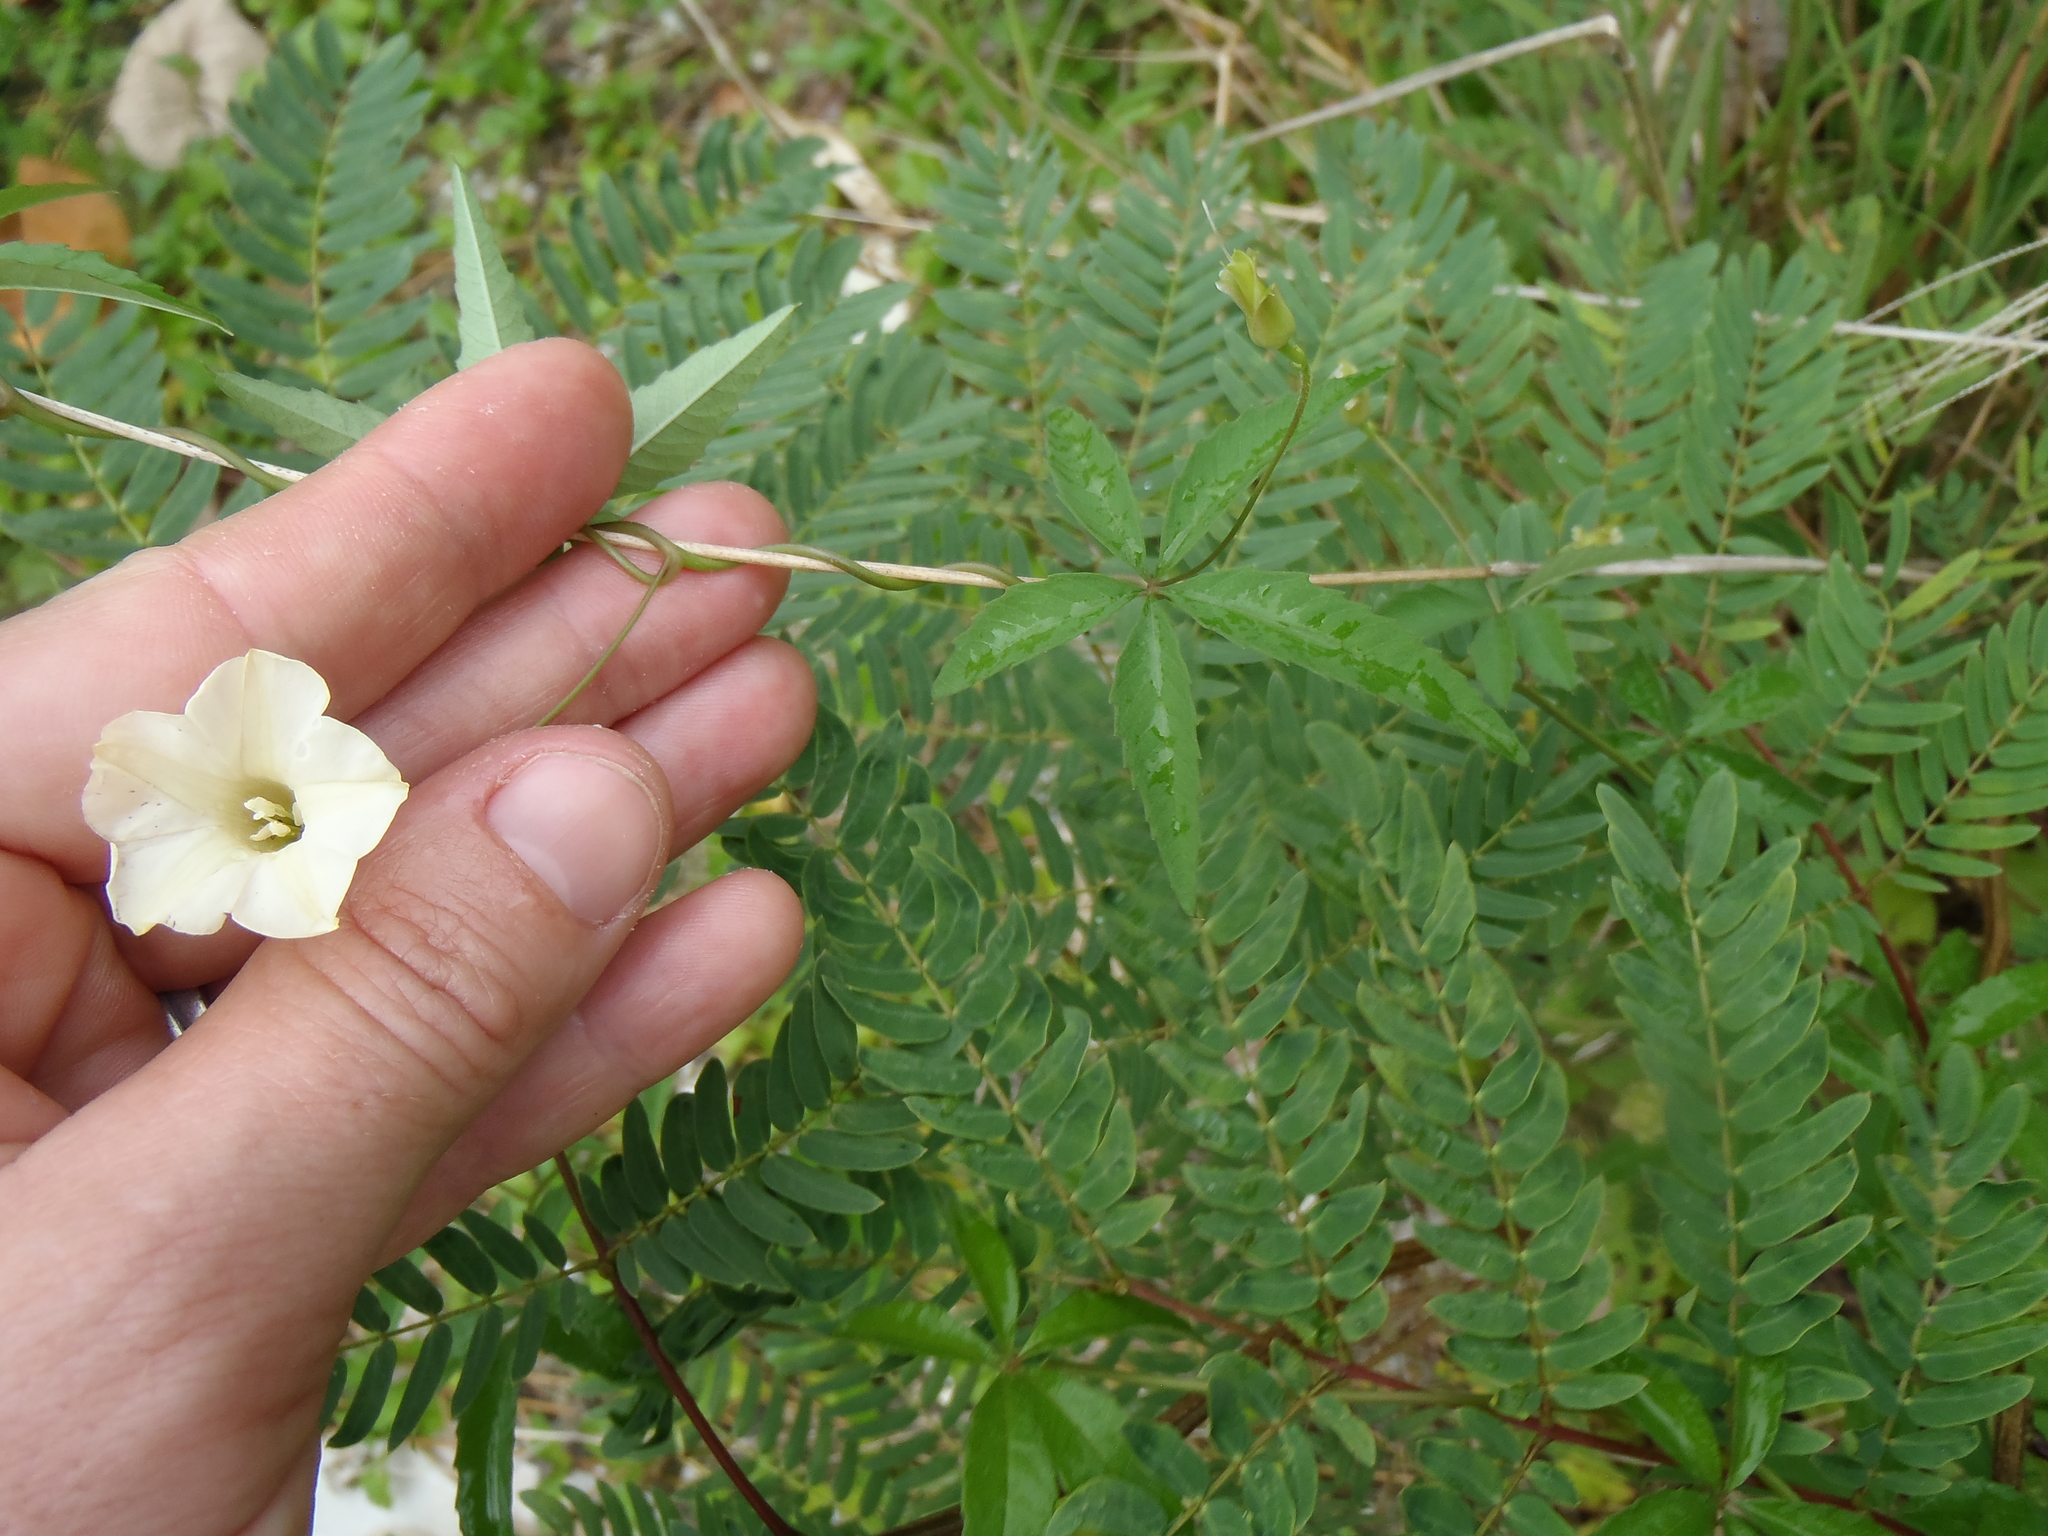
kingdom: Plantae
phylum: Tracheophyta
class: Magnoliopsida
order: Solanales
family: Convolvulaceae
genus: Distimake
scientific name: Distimake quinquefolius
